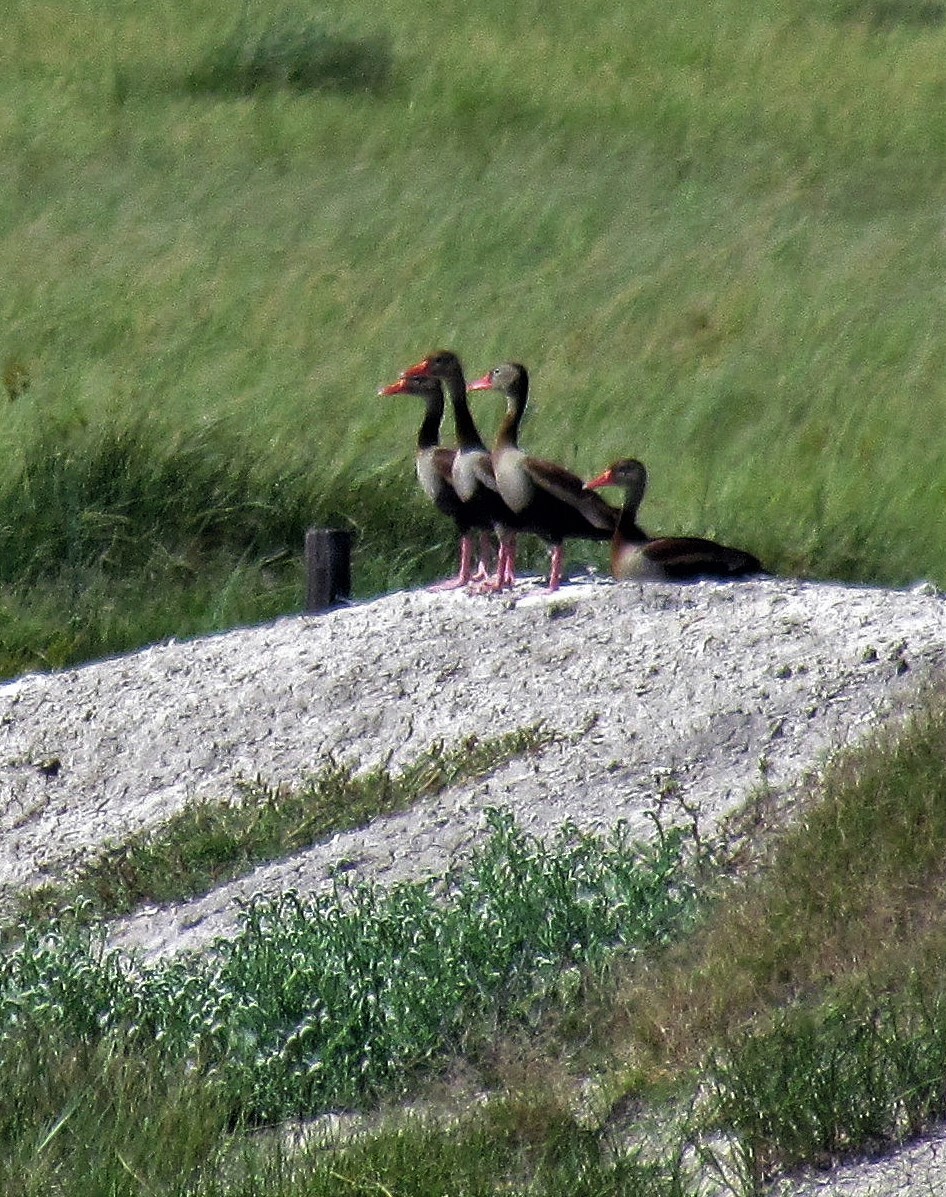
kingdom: Animalia
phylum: Chordata
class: Aves
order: Anseriformes
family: Anatidae
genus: Dendrocygna
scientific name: Dendrocygna autumnalis
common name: Black-bellied whistling duck
